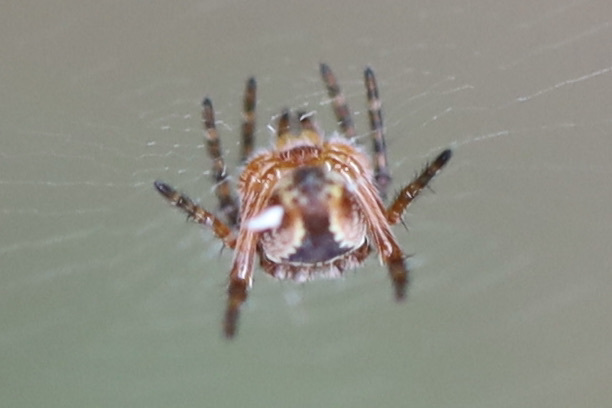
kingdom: Animalia
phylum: Arthropoda
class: Arachnida
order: Araneae
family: Araneidae
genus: Araneus
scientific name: Araneus diadematus
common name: Cross orbweaver
